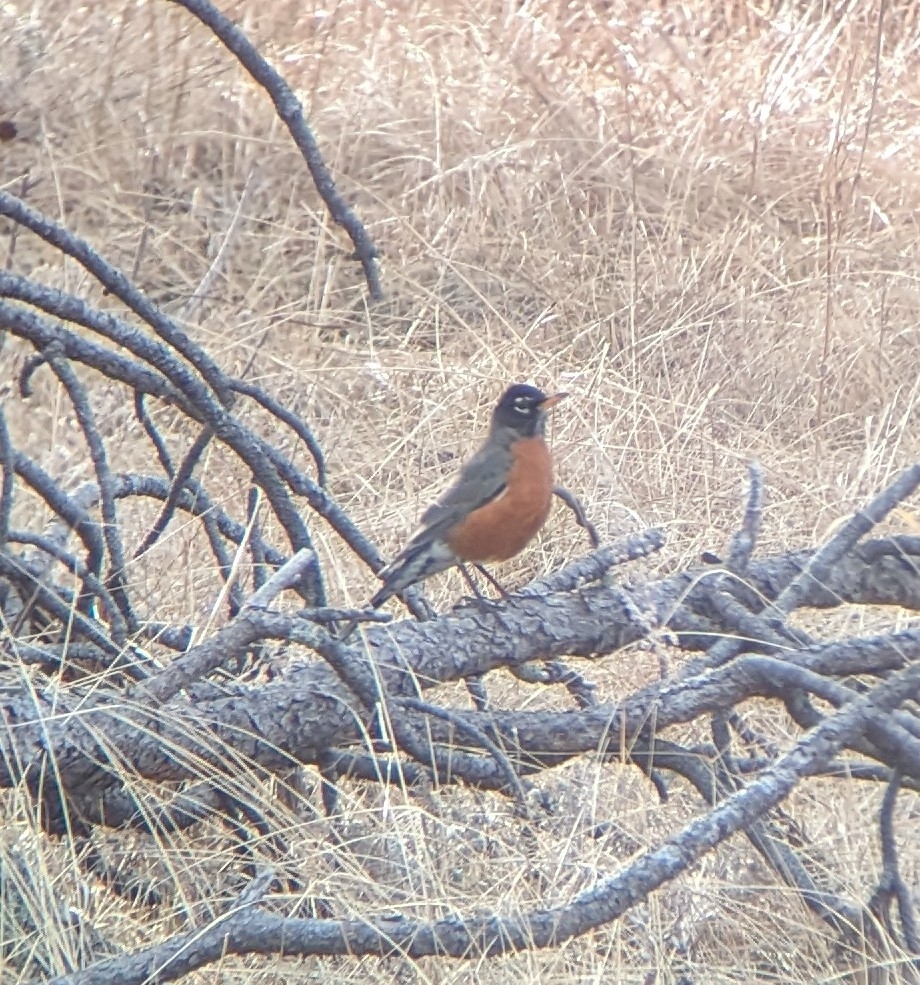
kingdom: Animalia
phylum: Chordata
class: Aves
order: Passeriformes
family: Turdidae
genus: Turdus
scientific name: Turdus migratorius
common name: American robin
